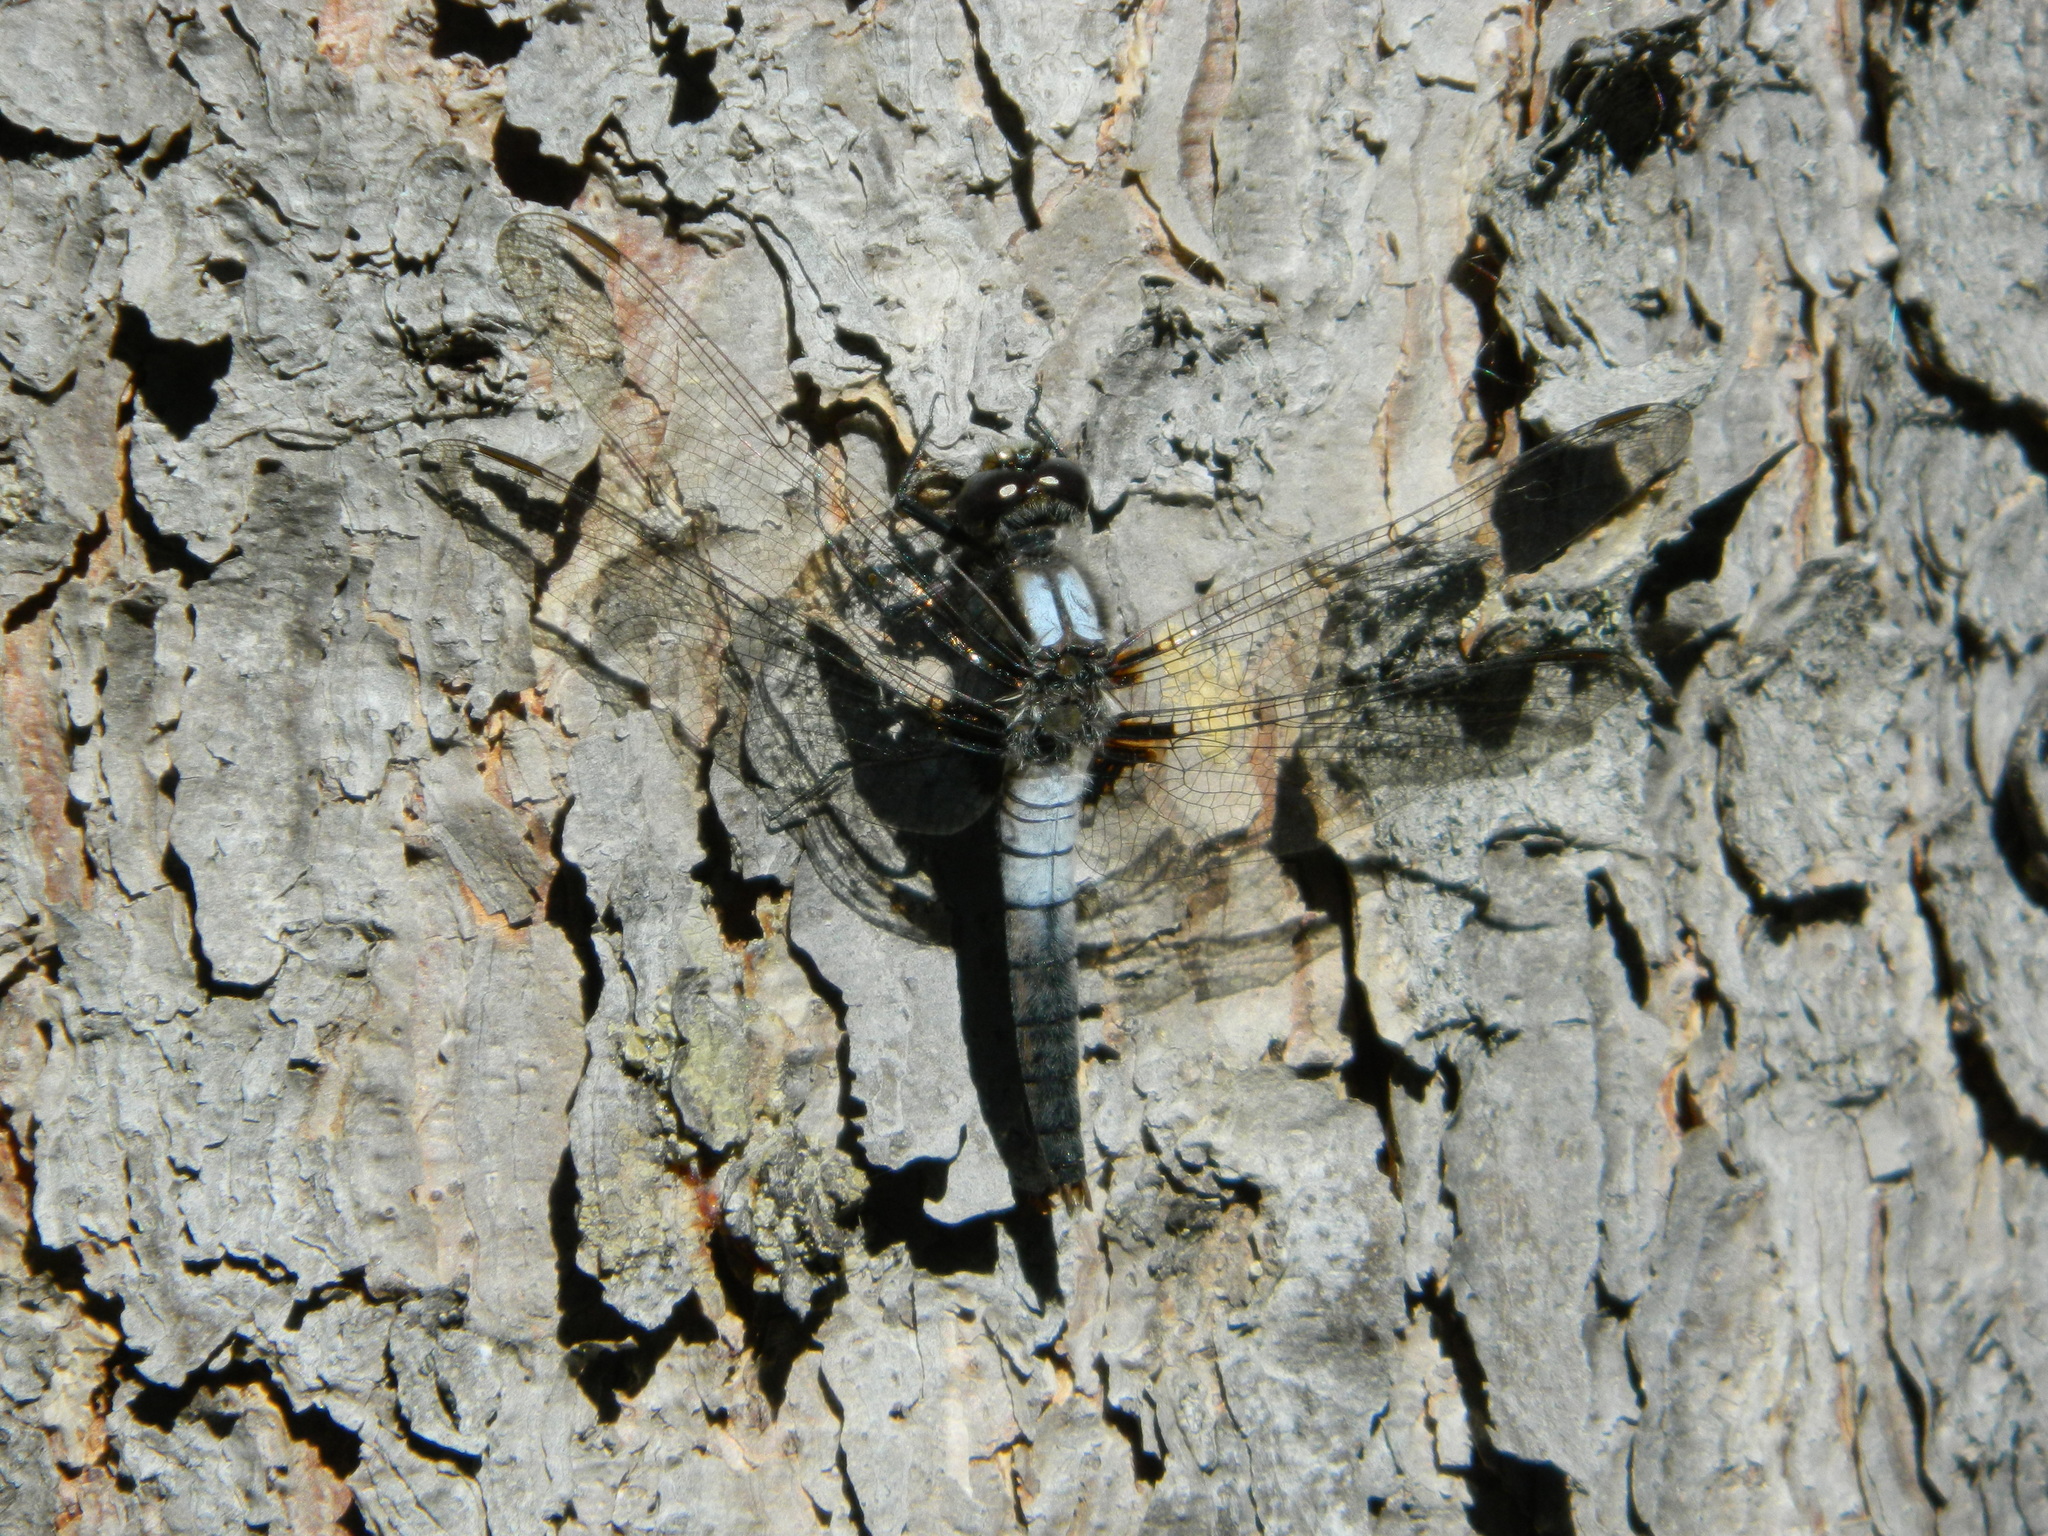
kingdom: Animalia
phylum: Arthropoda
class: Insecta
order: Odonata
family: Libellulidae
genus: Ladona
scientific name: Ladona julia
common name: Chalk-fronted corporal
